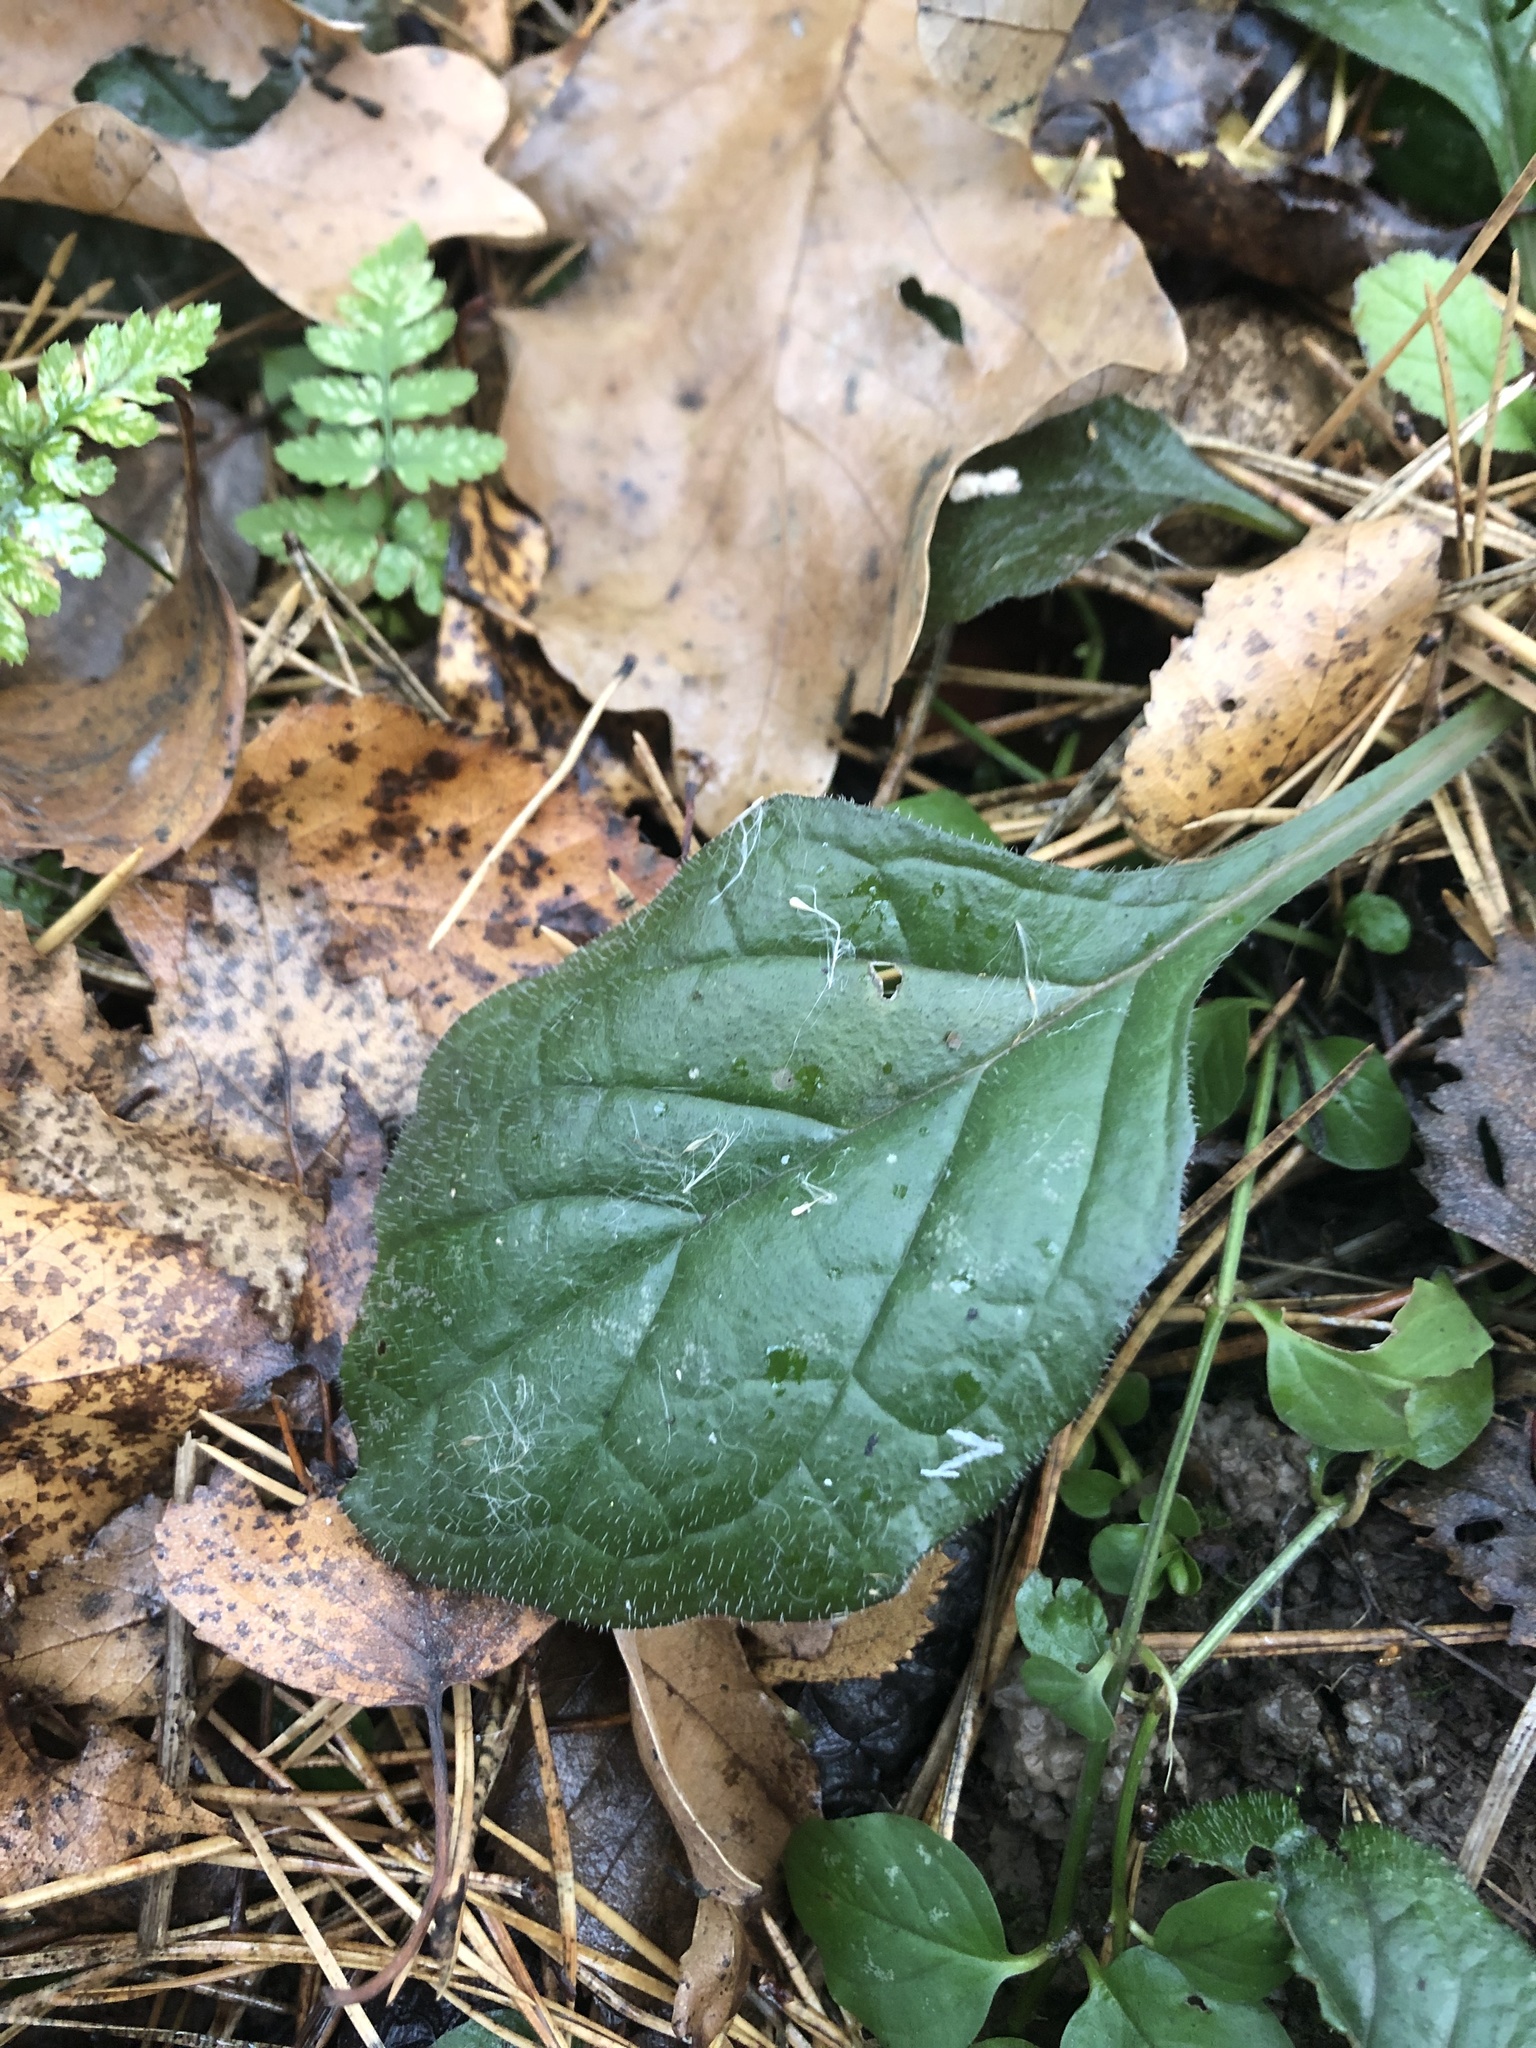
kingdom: Plantae
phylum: Tracheophyta
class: Magnoliopsida
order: Lamiales
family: Lamiaceae
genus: Ajuga
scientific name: Ajuga reptans
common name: Bugle
